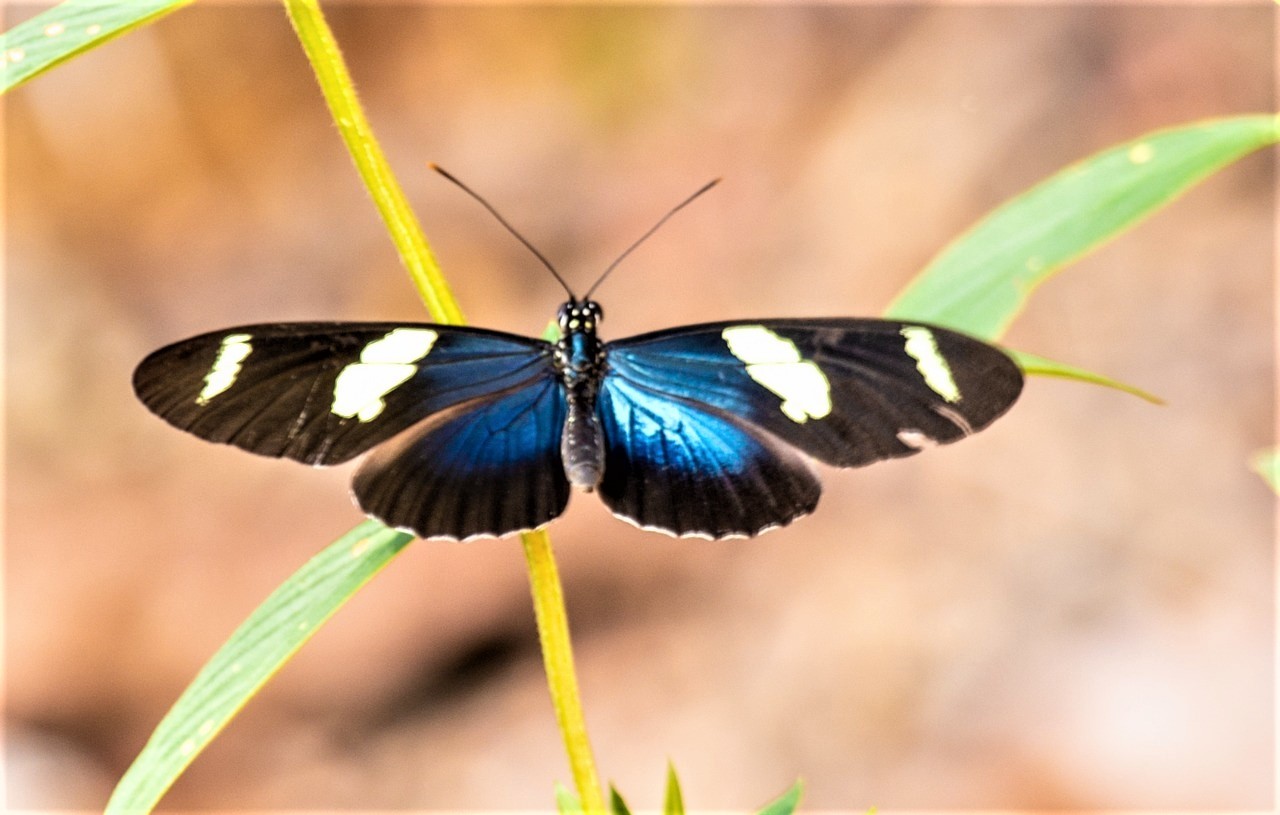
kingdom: Animalia
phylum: Arthropoda
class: Insecta
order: Lepidoptera
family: Nymphalidae
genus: Heliconius
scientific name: Heliconius sara
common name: Sara longwing
